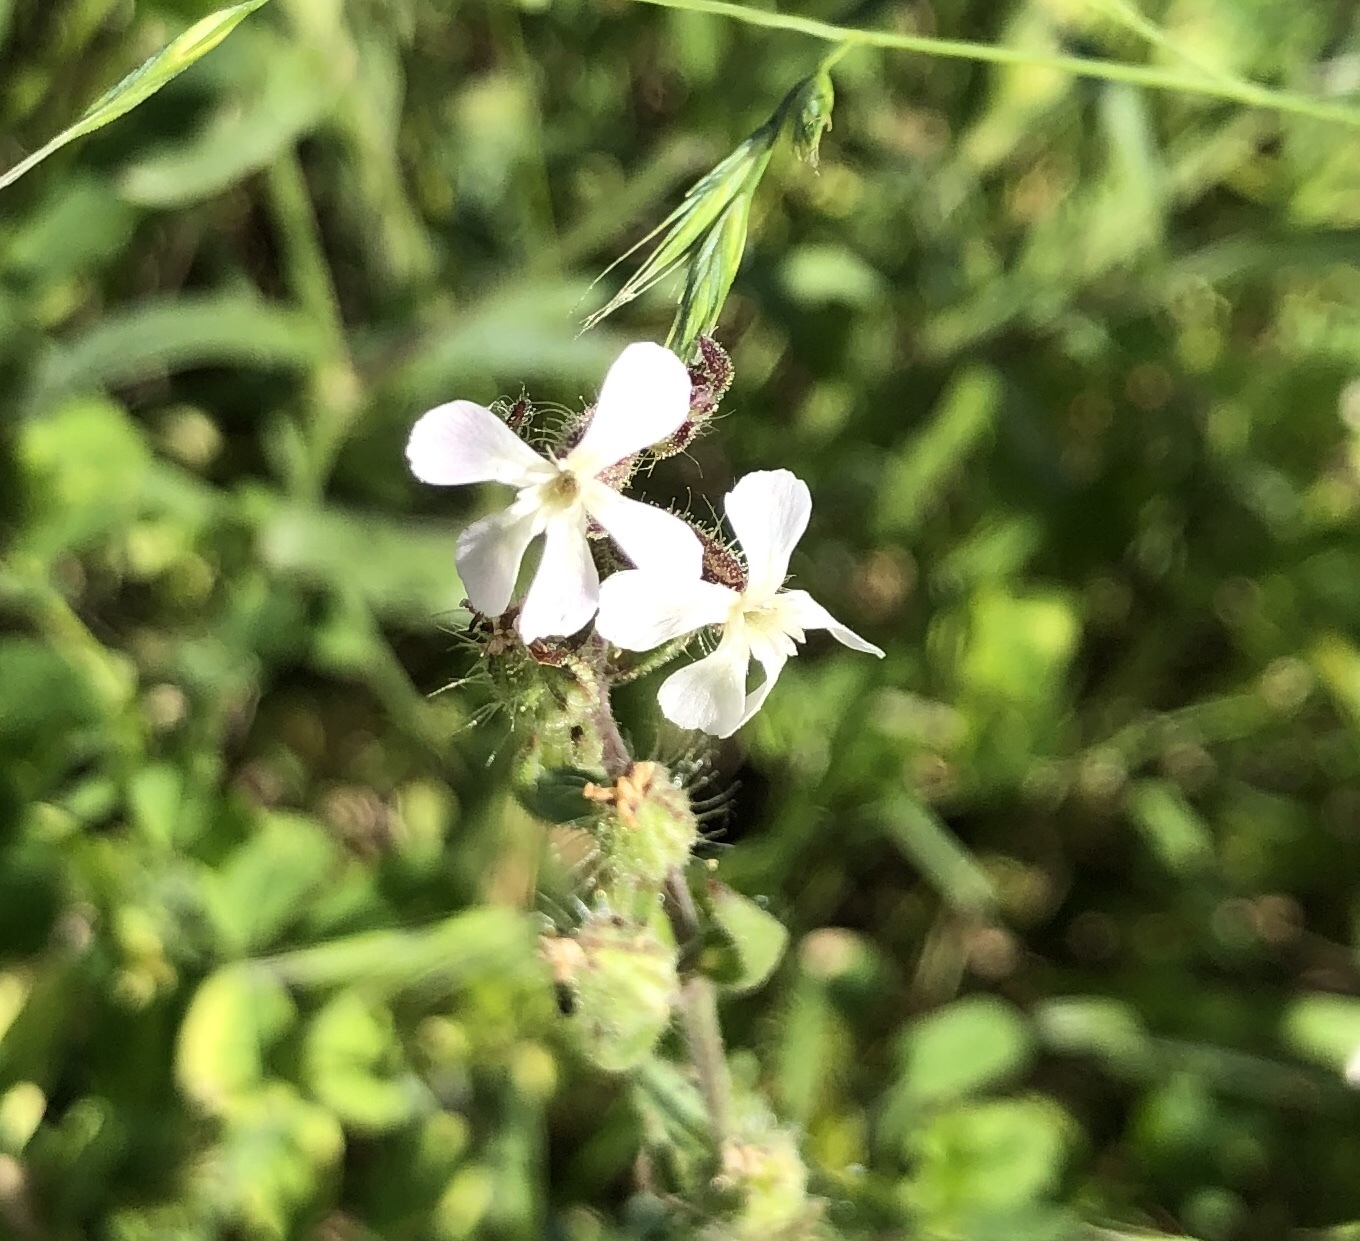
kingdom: Plantae
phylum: Tracheophyta
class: Magnoliopsida
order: Caryophyllales
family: Caryophyllaceae
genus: Silene
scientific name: Silene gallica
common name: Small-flowered catchfly
